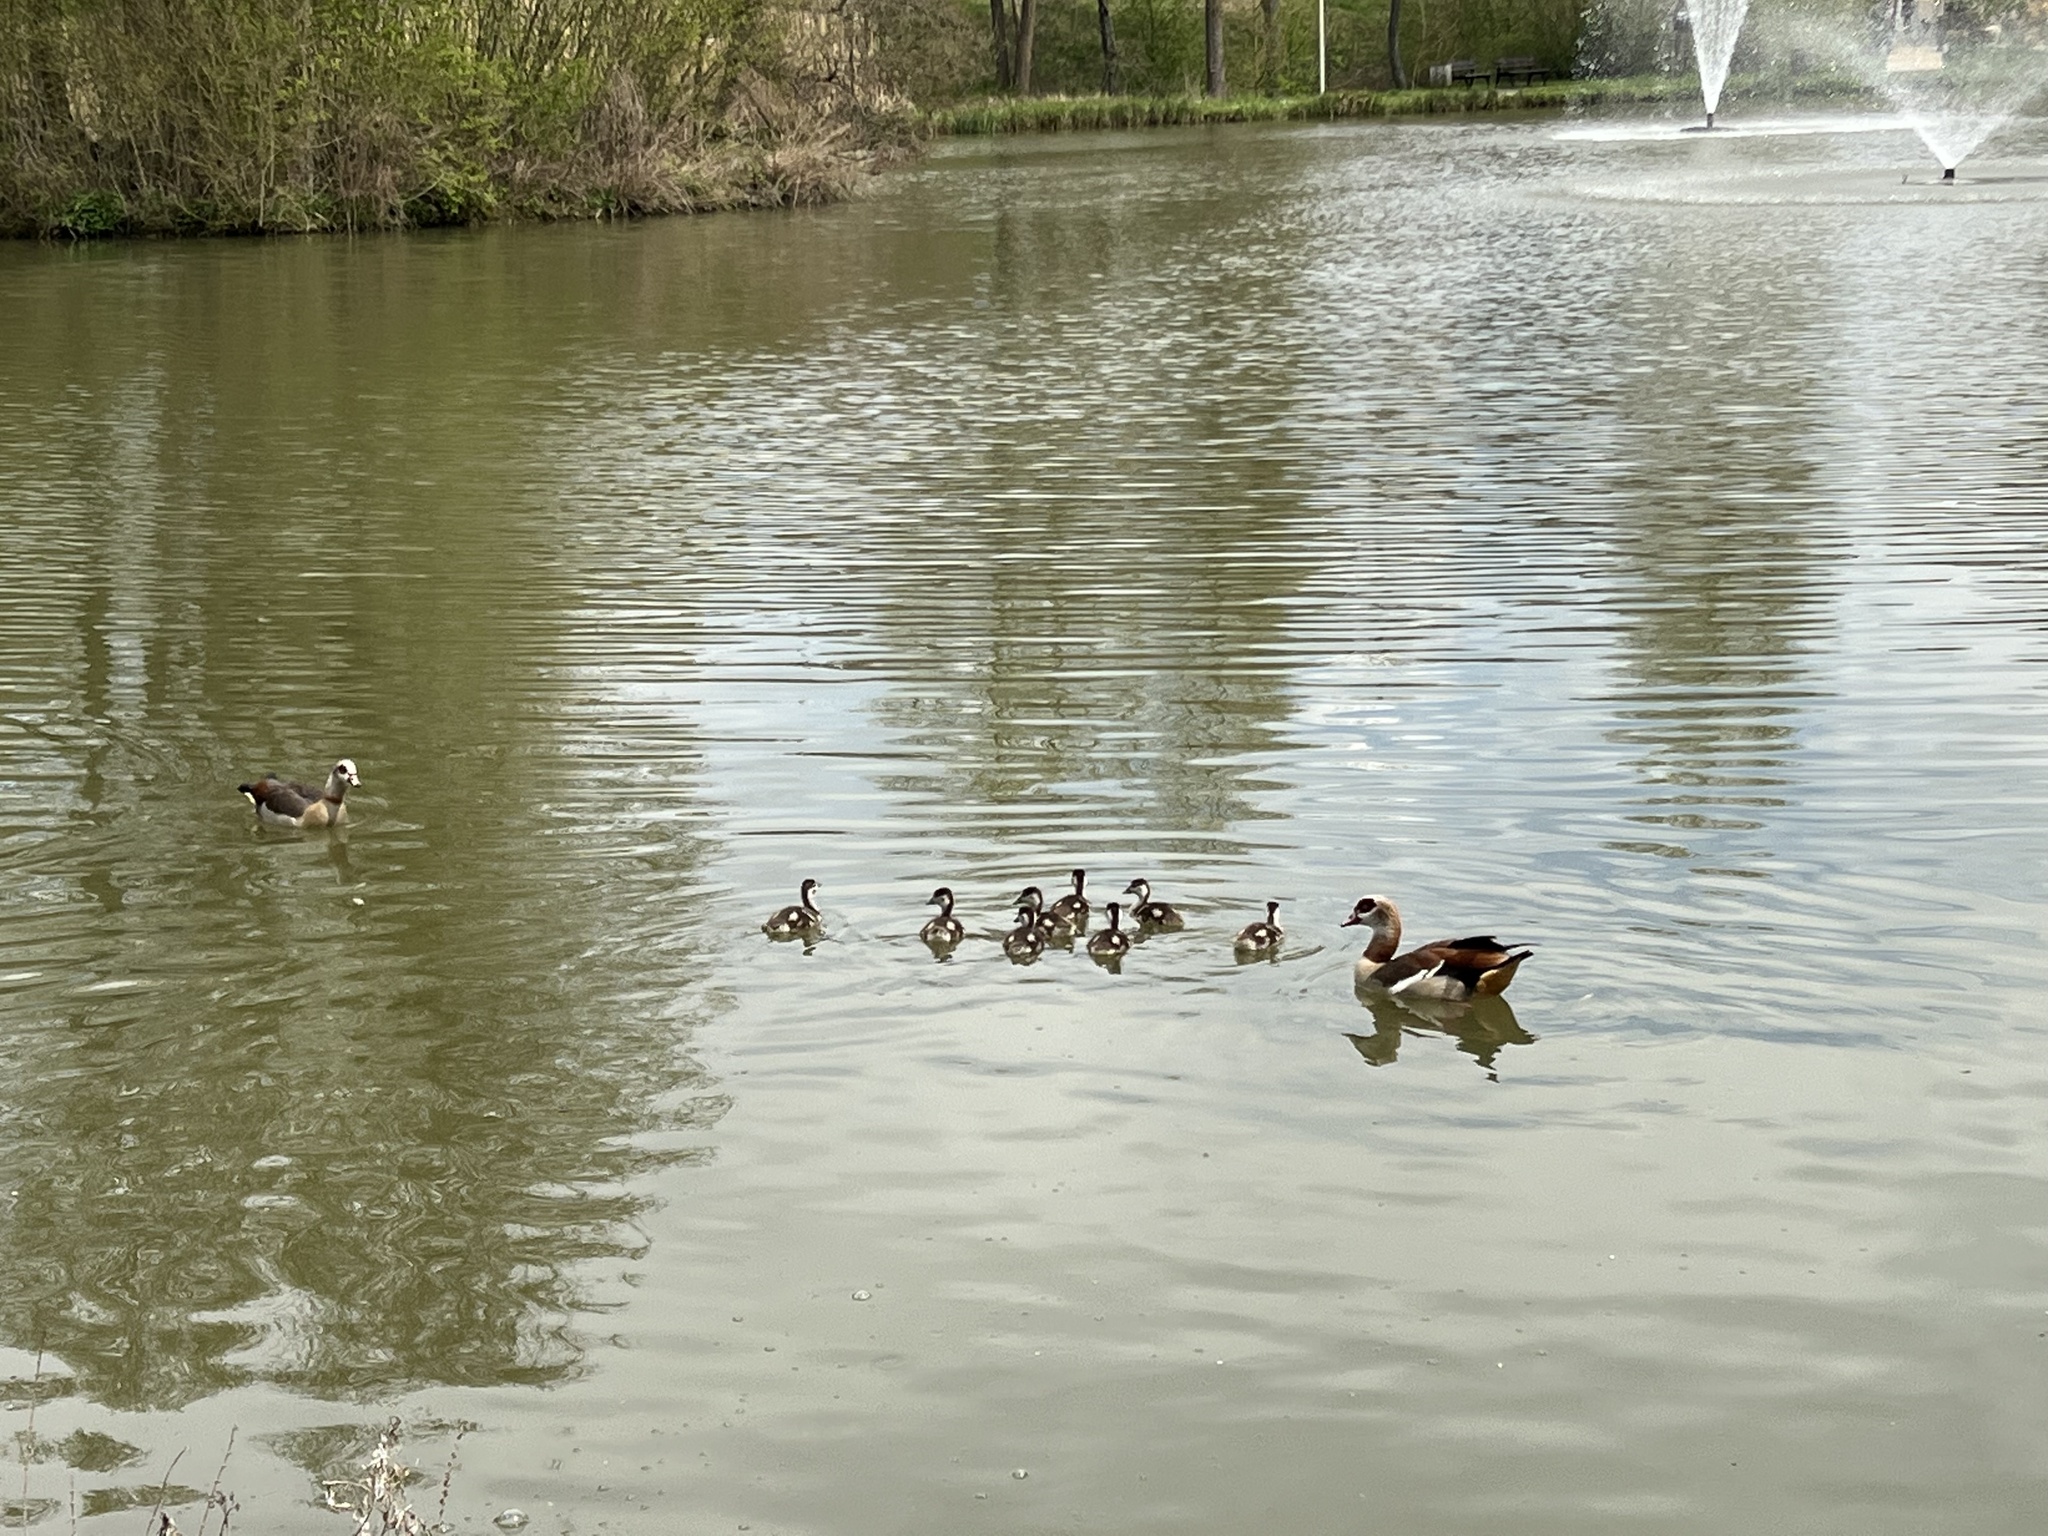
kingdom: Animalia
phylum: Chordata
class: Aves
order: Anseriformes
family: Anatidae
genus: Alopochen
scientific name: Alopochen aegyptiaca
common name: Egyptian goose
